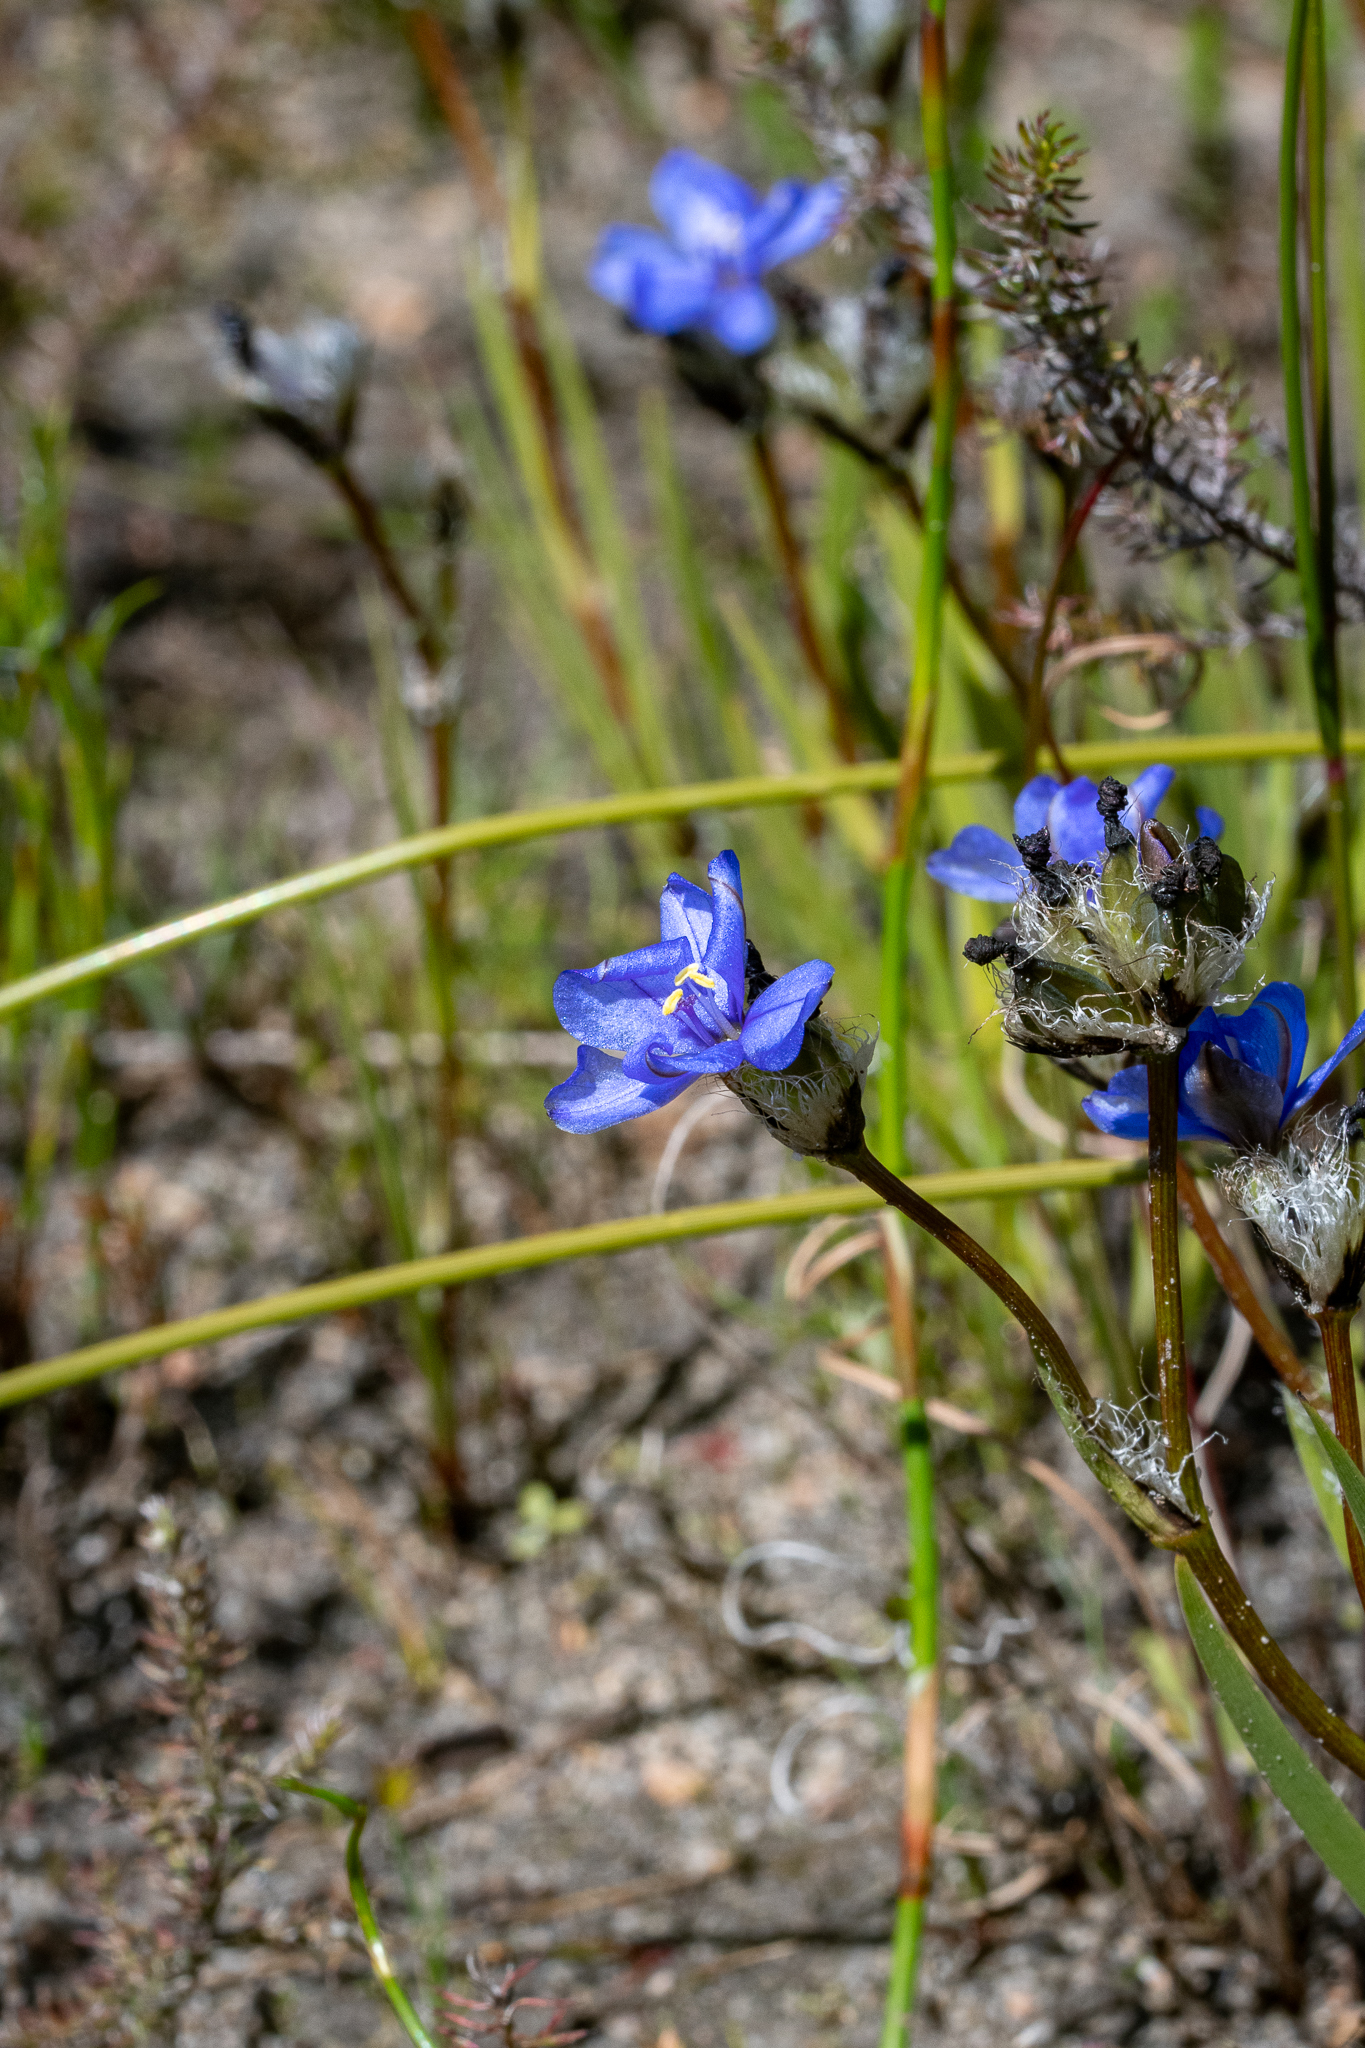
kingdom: Plantae
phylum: Tracheophyta
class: Liliopsida
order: Asparagales
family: Iridaceae
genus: Aristea
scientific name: Aristea africana
